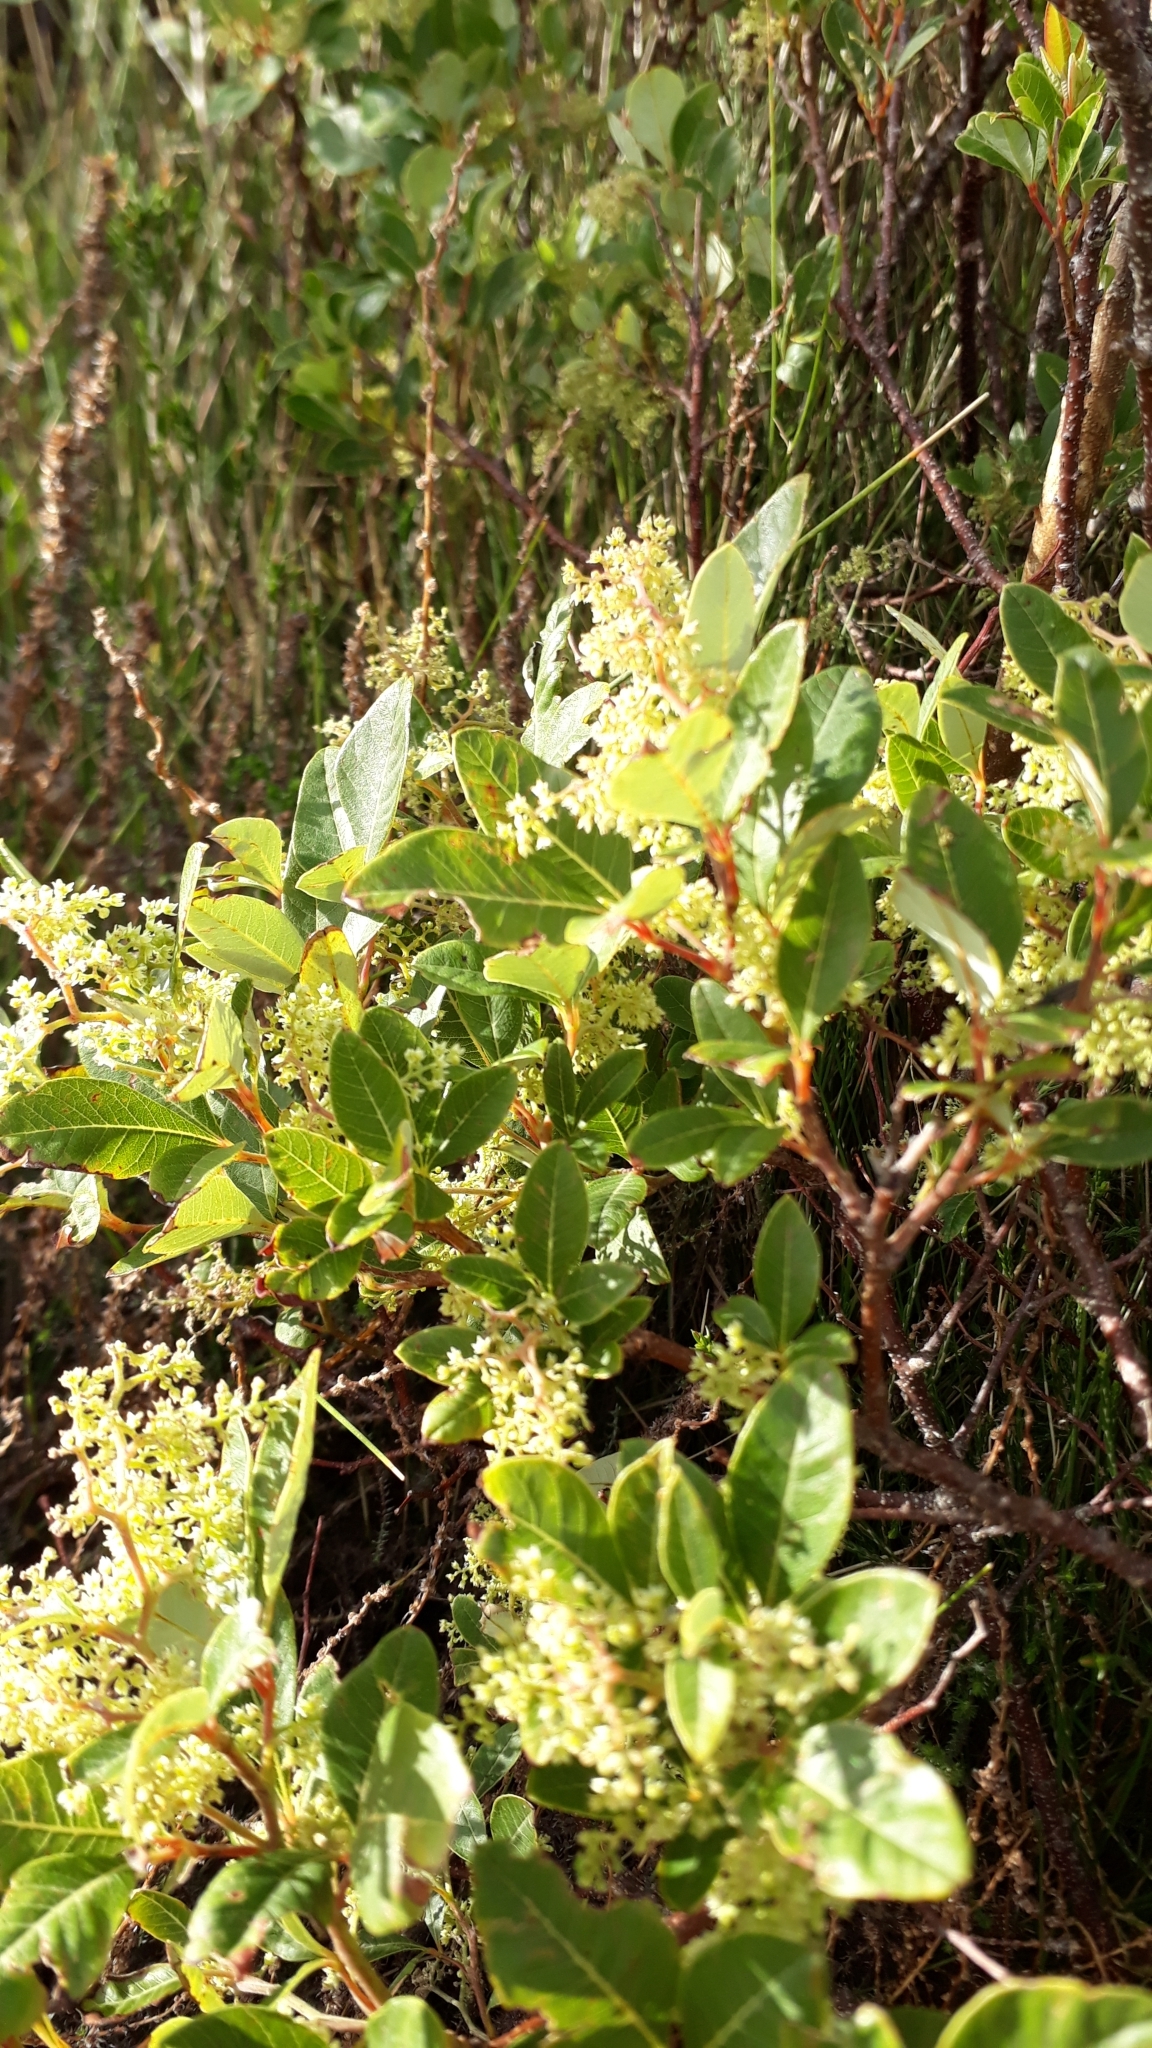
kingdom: Plantae
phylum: Tracheophyta
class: Magnoliopsida
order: Sapindales
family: Anacardiaceae
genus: Searsia
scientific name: Searsia tomentosa
